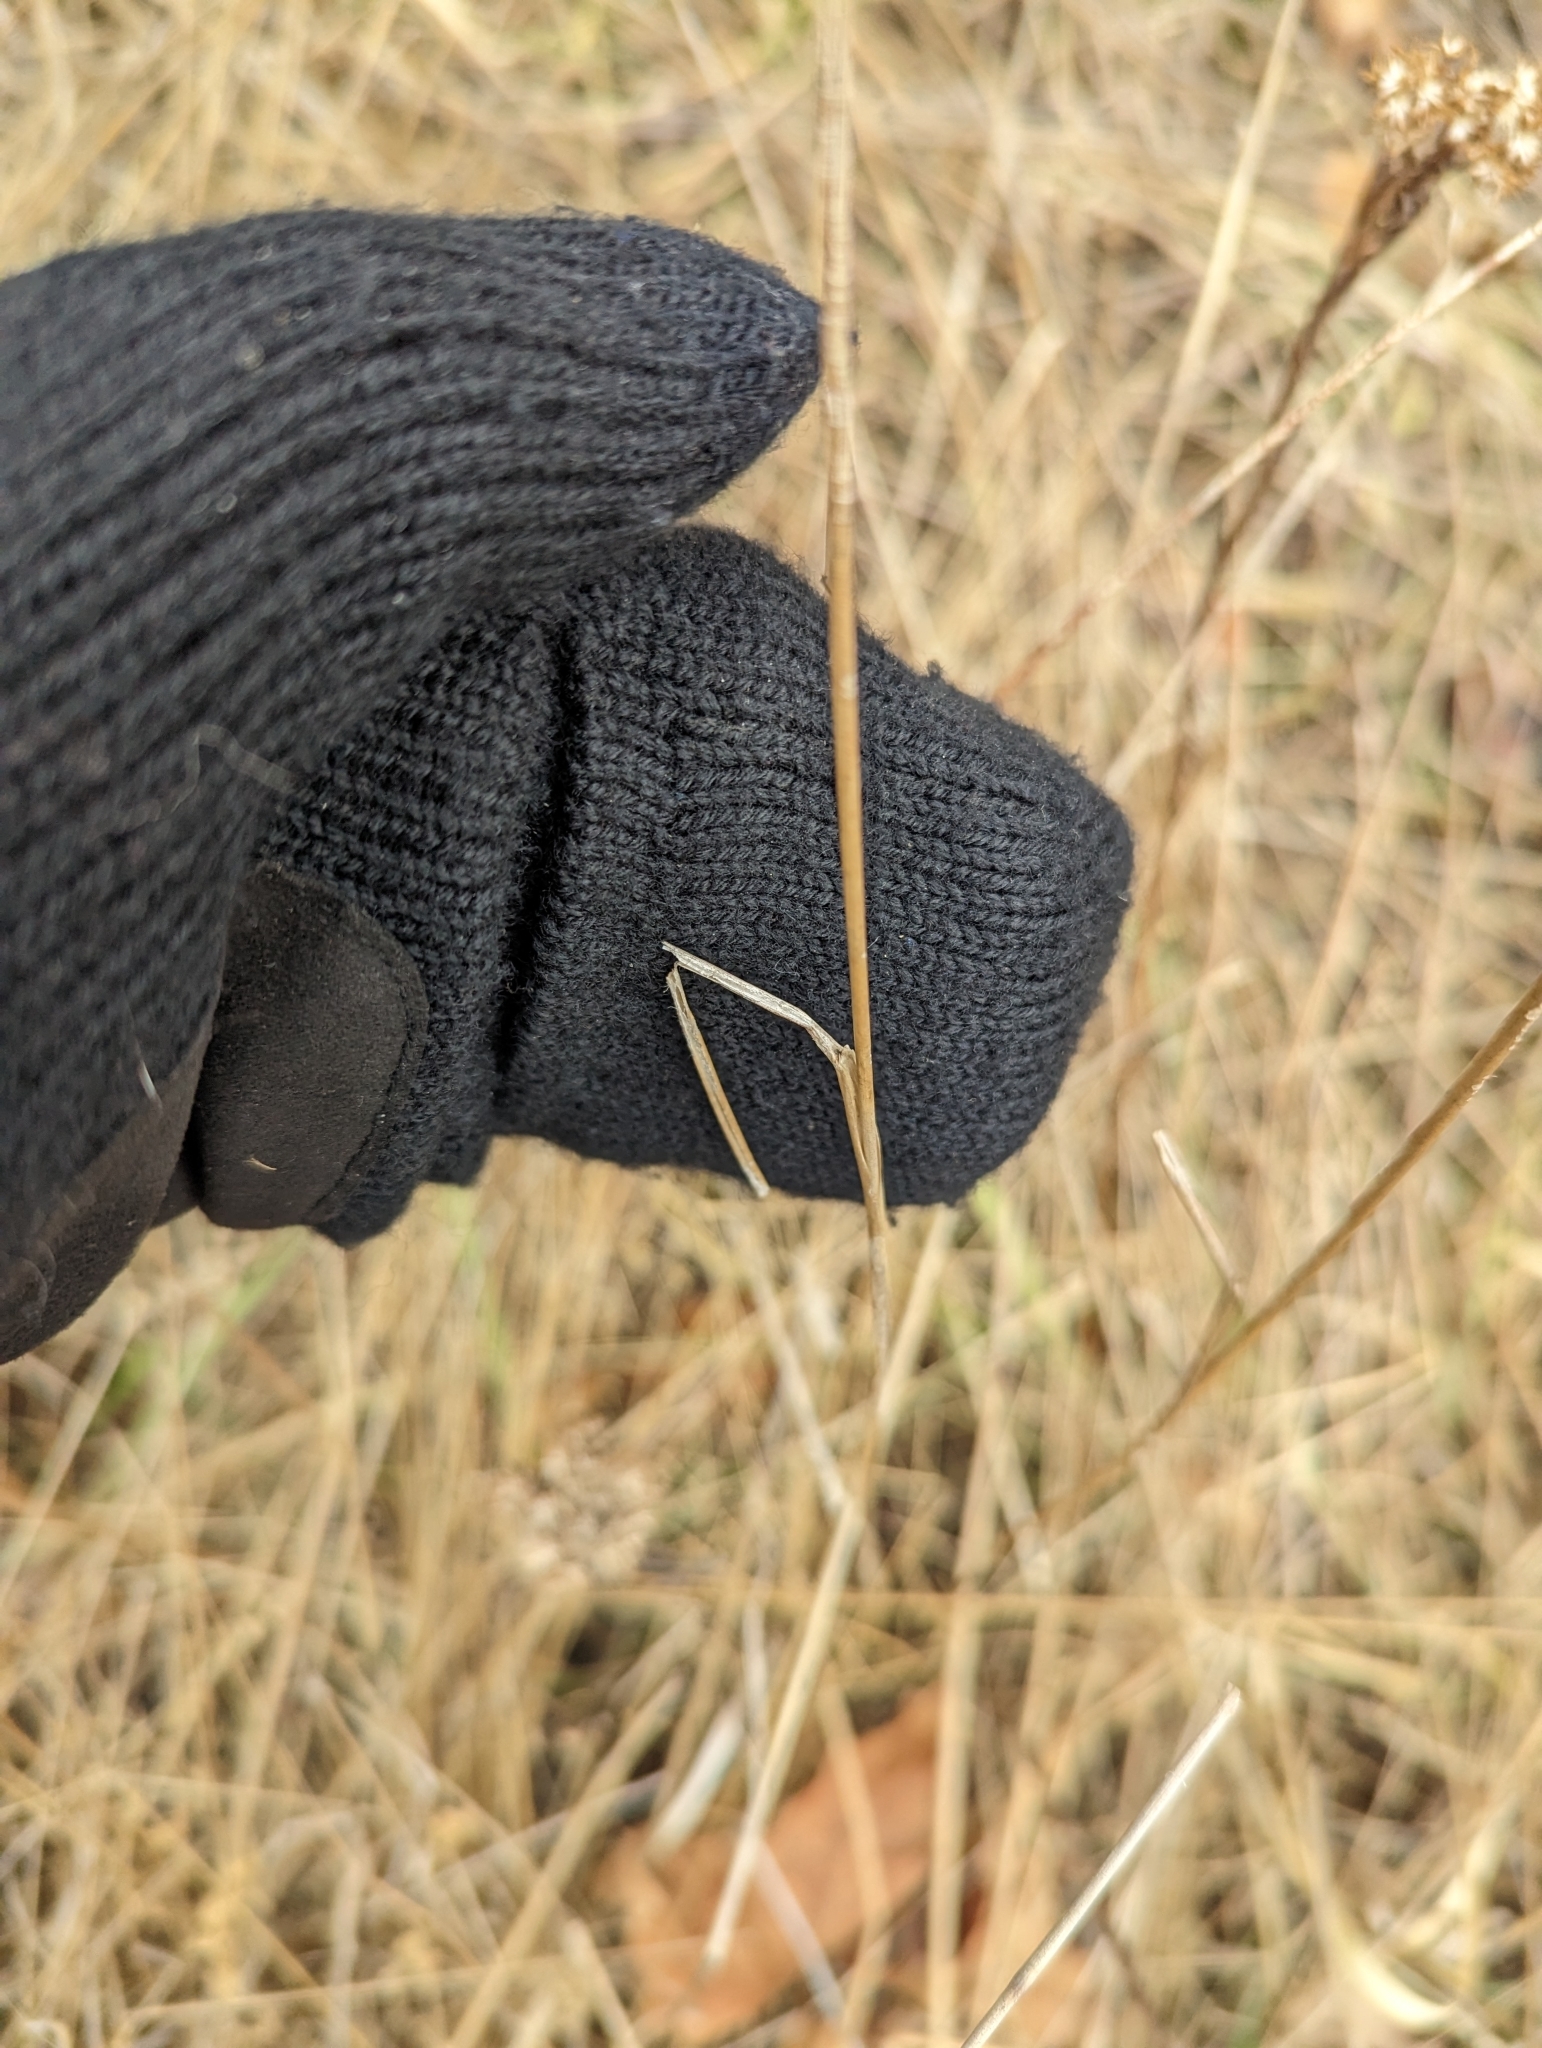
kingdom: Plantae
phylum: Tracheophyta
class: Liliopsida
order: Poales
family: Juncaceae
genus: Juncus
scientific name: Juncus torreyi
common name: Torrey's rush
